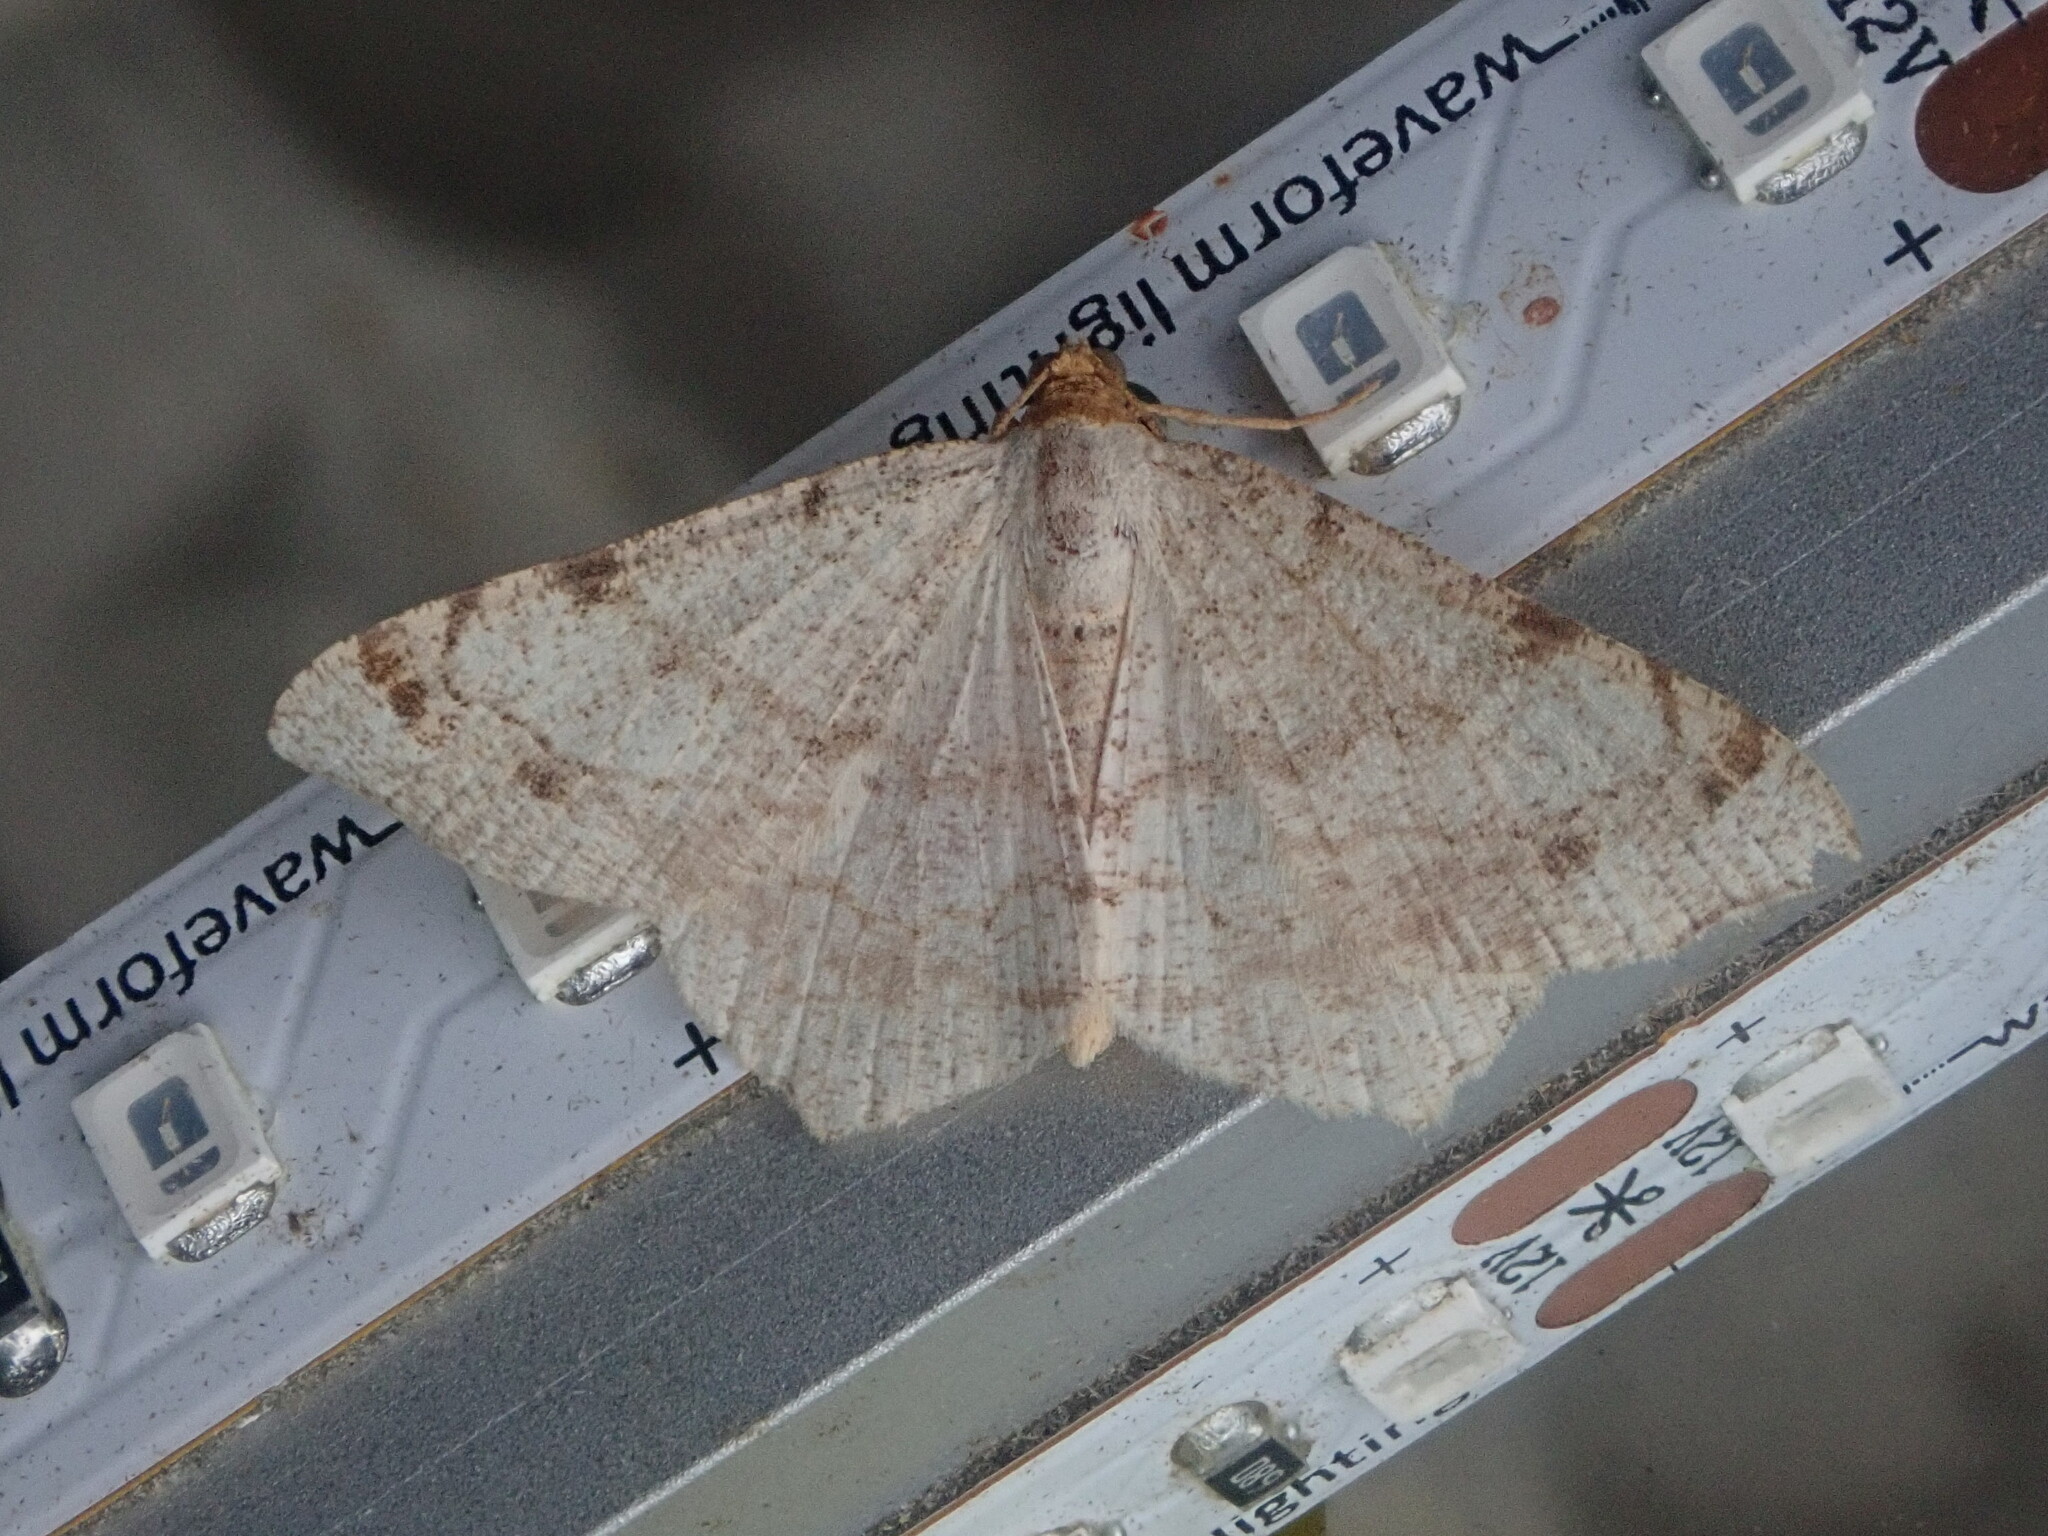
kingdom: Animalia
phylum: Arthropoda
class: Insecta
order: Lepidoptera
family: Geometridae
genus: Macaria
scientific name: Macaria bisignata
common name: Red-headed inchworm
